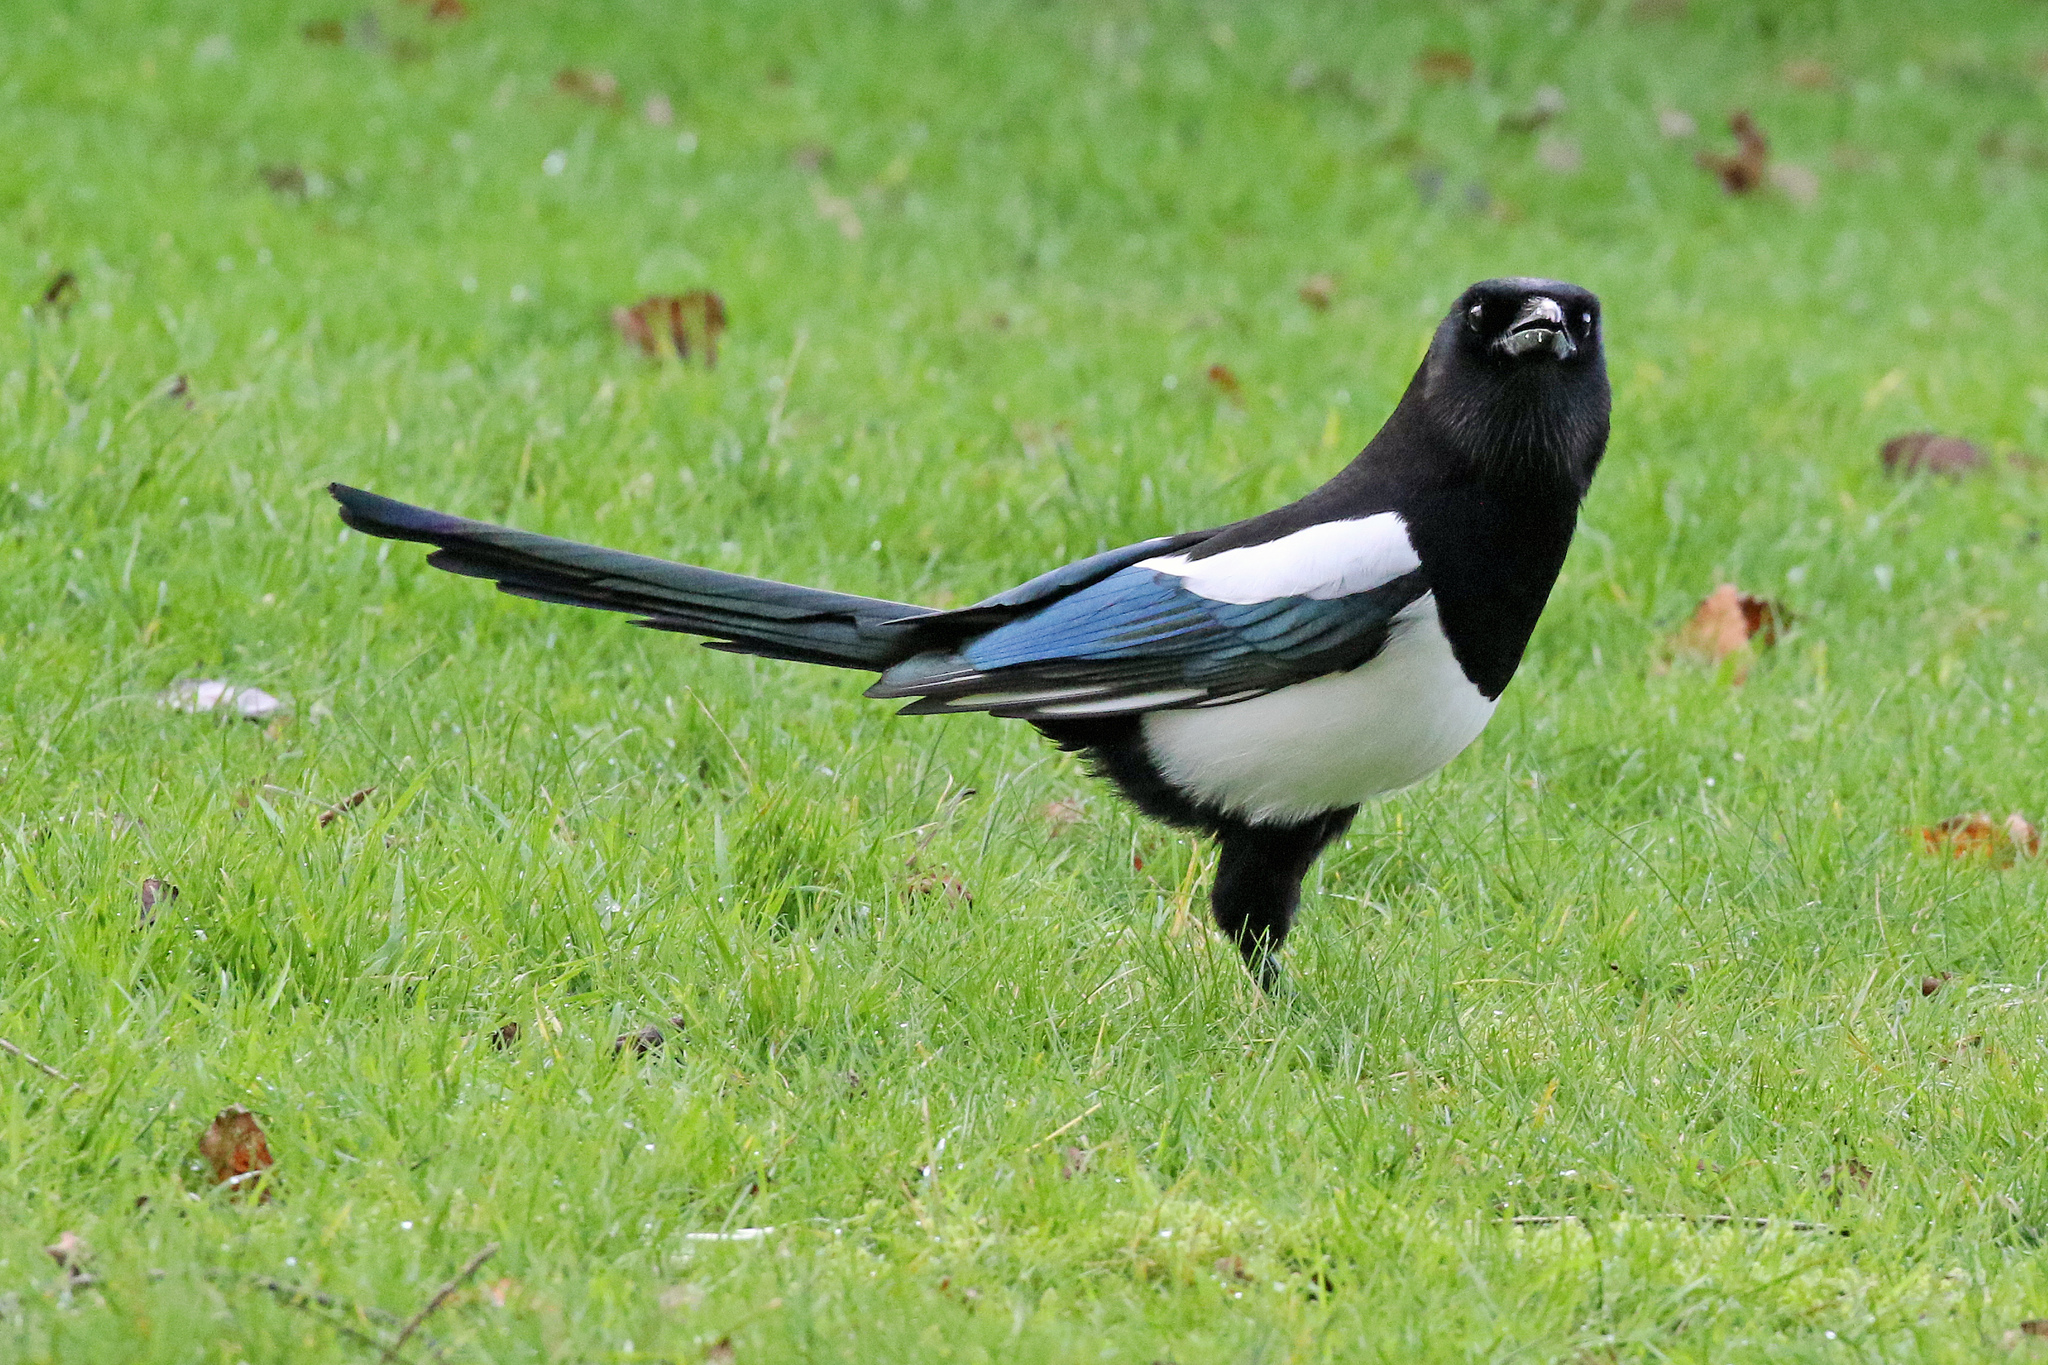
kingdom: Animalia
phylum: Chordata
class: Aves
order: Passeriformes
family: Corvidae
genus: Pica
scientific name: Pica pica
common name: Eurasian magpie
